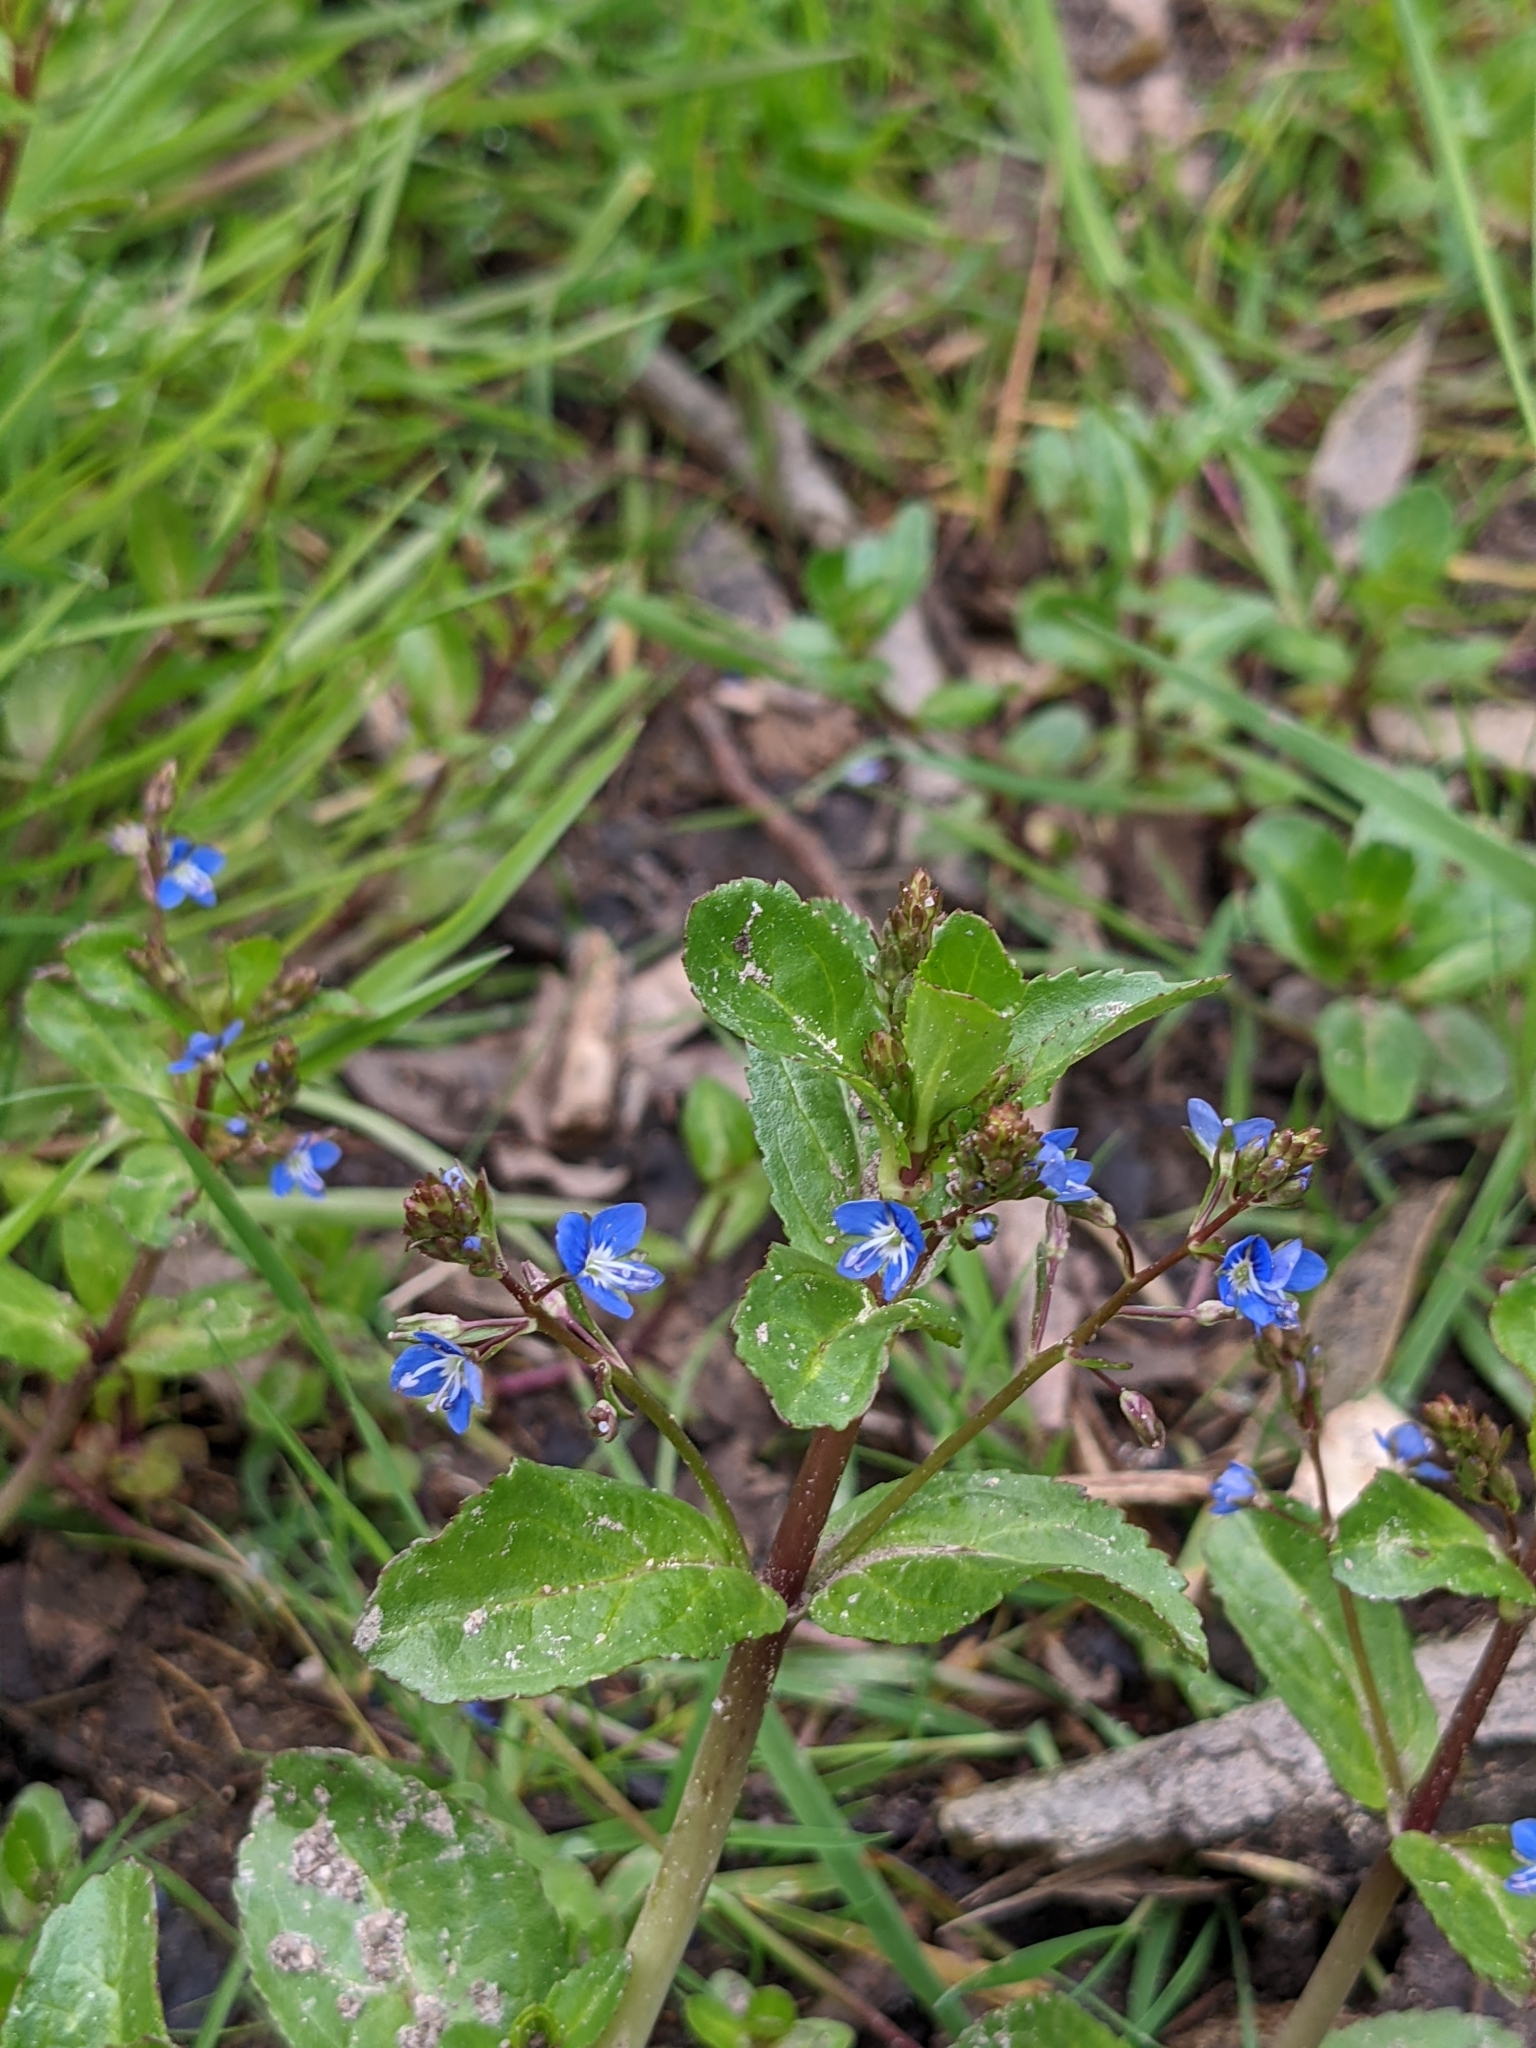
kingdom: Plantae
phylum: Tracheophyta
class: Magnoliopsida
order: Lamiales
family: Plantaginaceae
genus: Veronica
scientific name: Veronica beccabunga
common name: Brooklime
